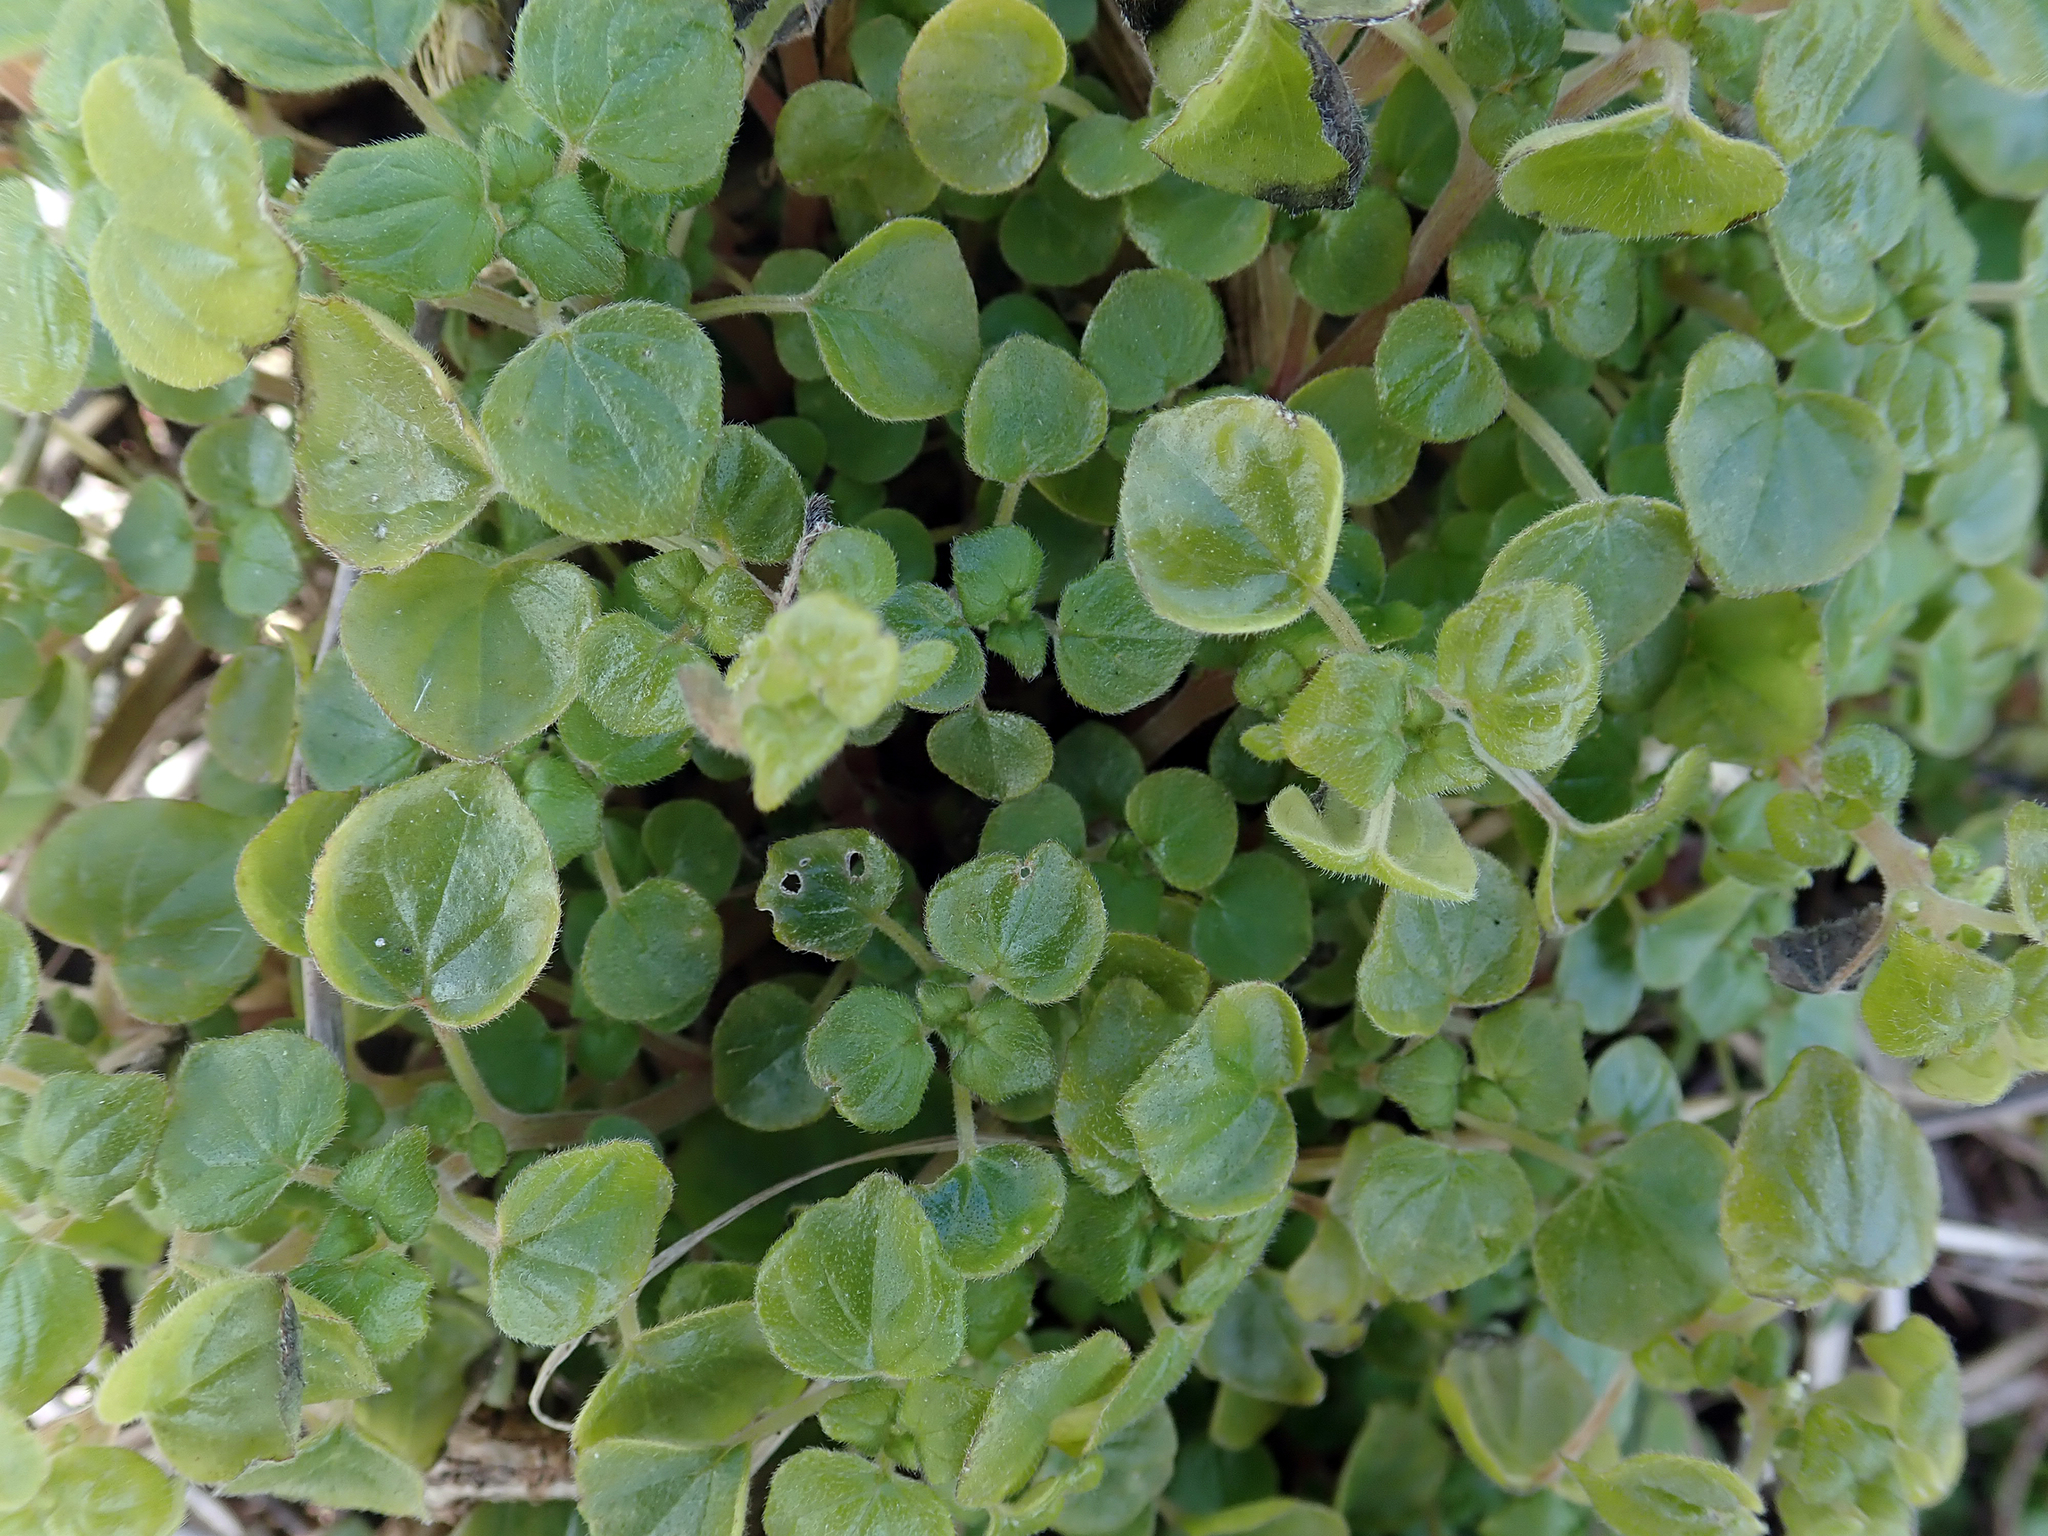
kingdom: Plantae
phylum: Tracheophyta
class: Magnoliopsida
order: Rosales
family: Urticaceae
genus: Parietaria
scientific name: Parietaria debilis
